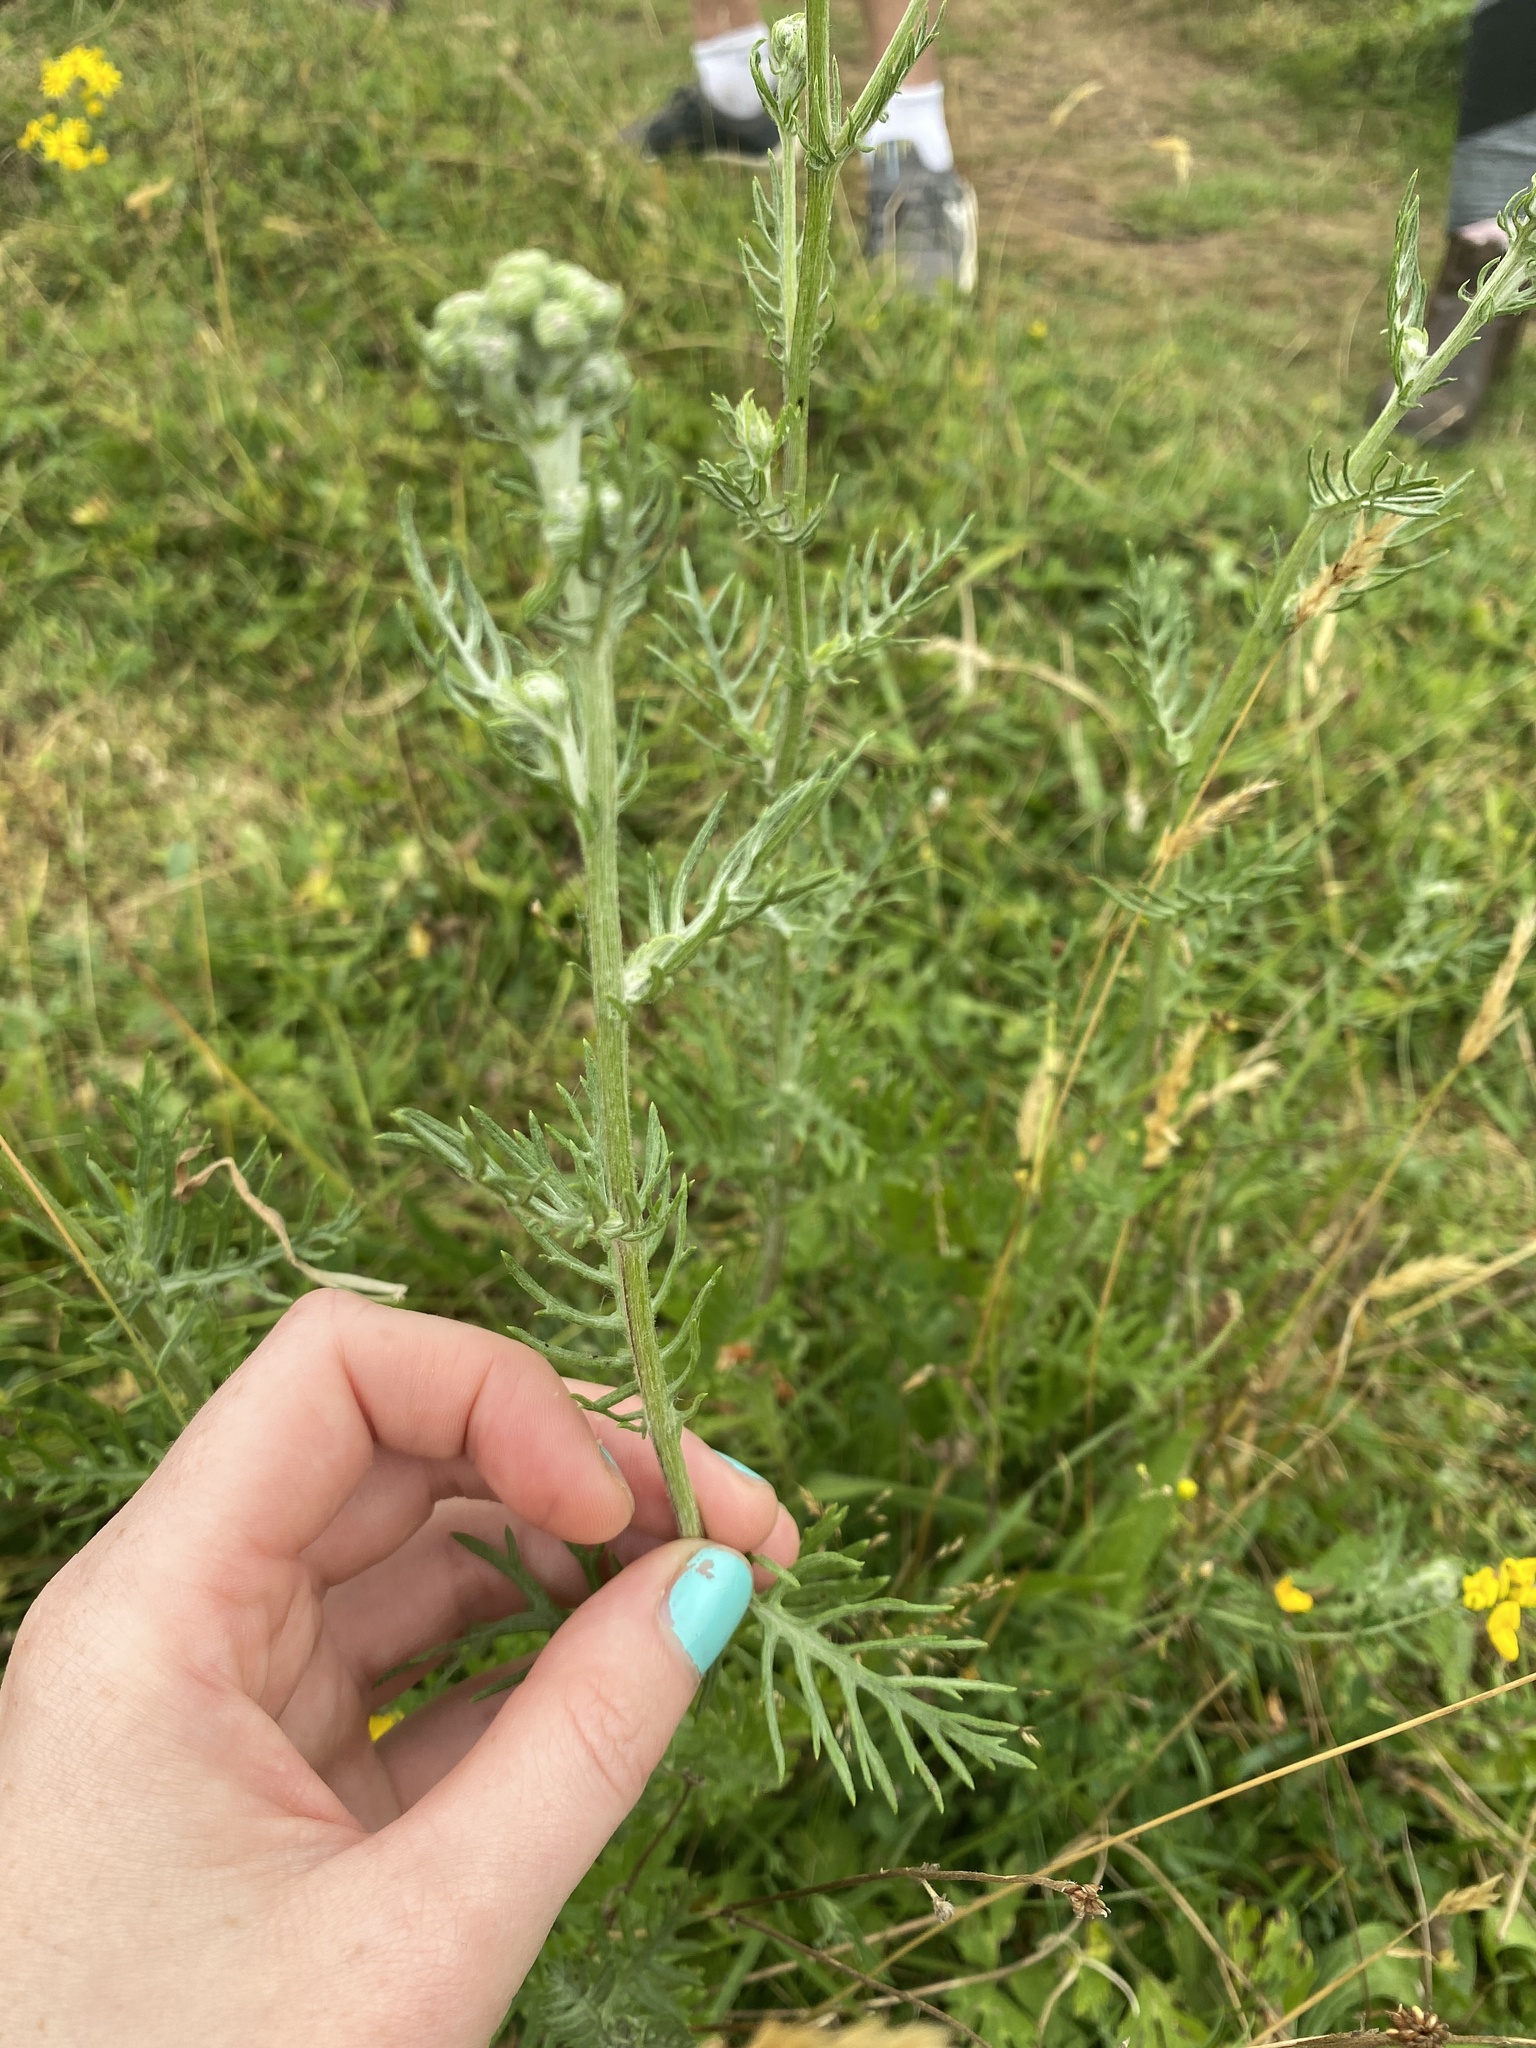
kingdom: Plantae
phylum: Tracheophyta
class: Magnoliopsida
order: Asterales
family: Asteraceae
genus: Jacobaea
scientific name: Jacobaea erucifolia
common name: Hoary ragwort
